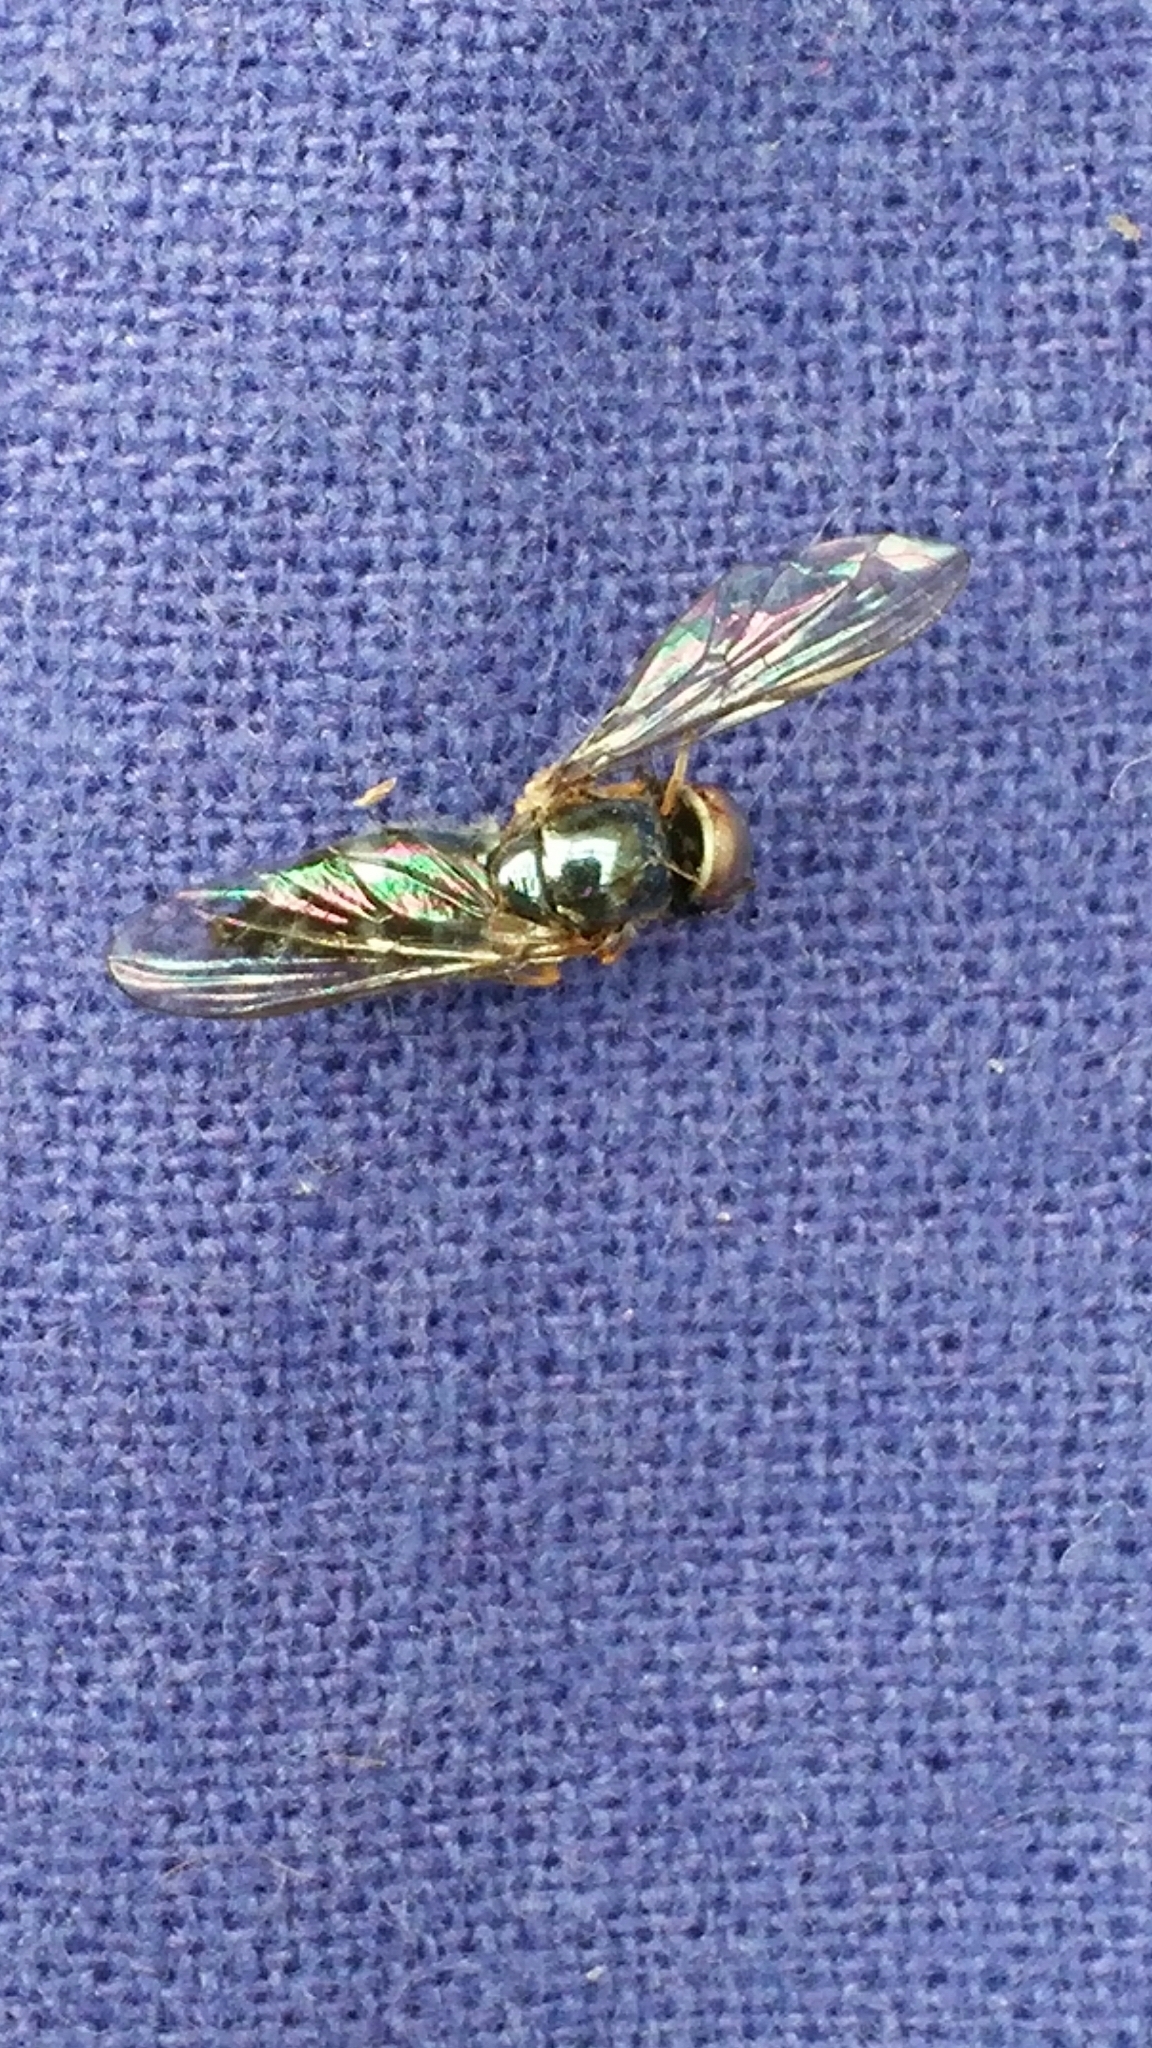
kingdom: Animalia
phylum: Arthropoda
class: Insecta
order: Diptera
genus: Bacchina
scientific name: Bacchina
